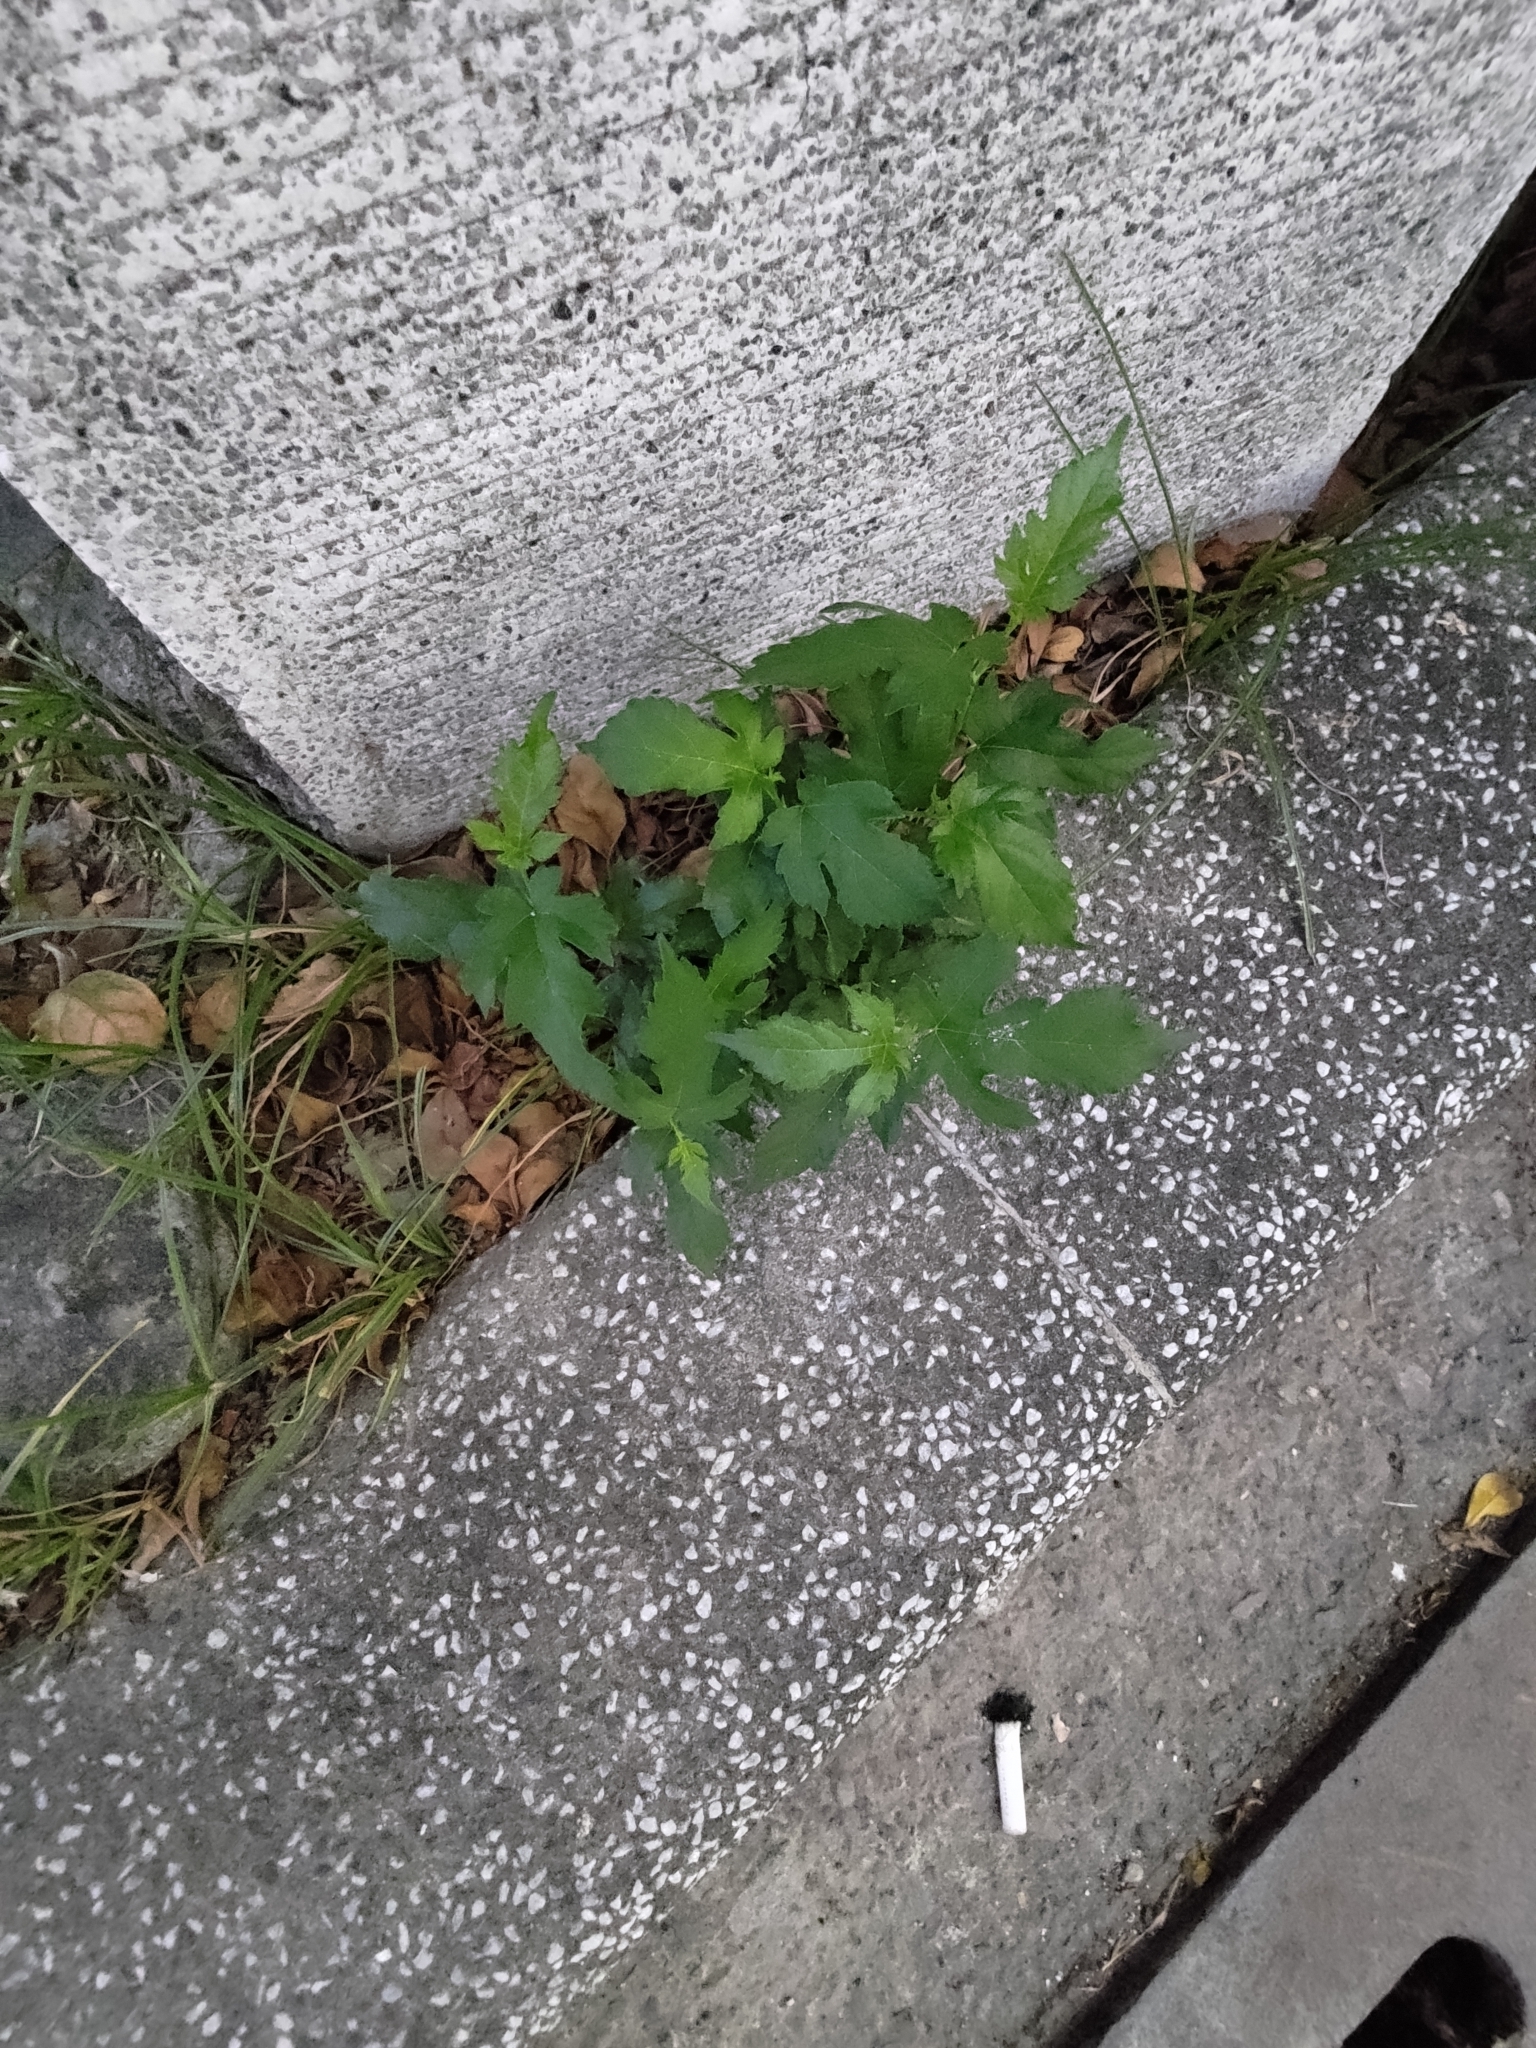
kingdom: Plantae
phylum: Tracheophyta
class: Magnoliopsida
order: Rosales
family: Moraceae
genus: Morus
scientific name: Morus indica
